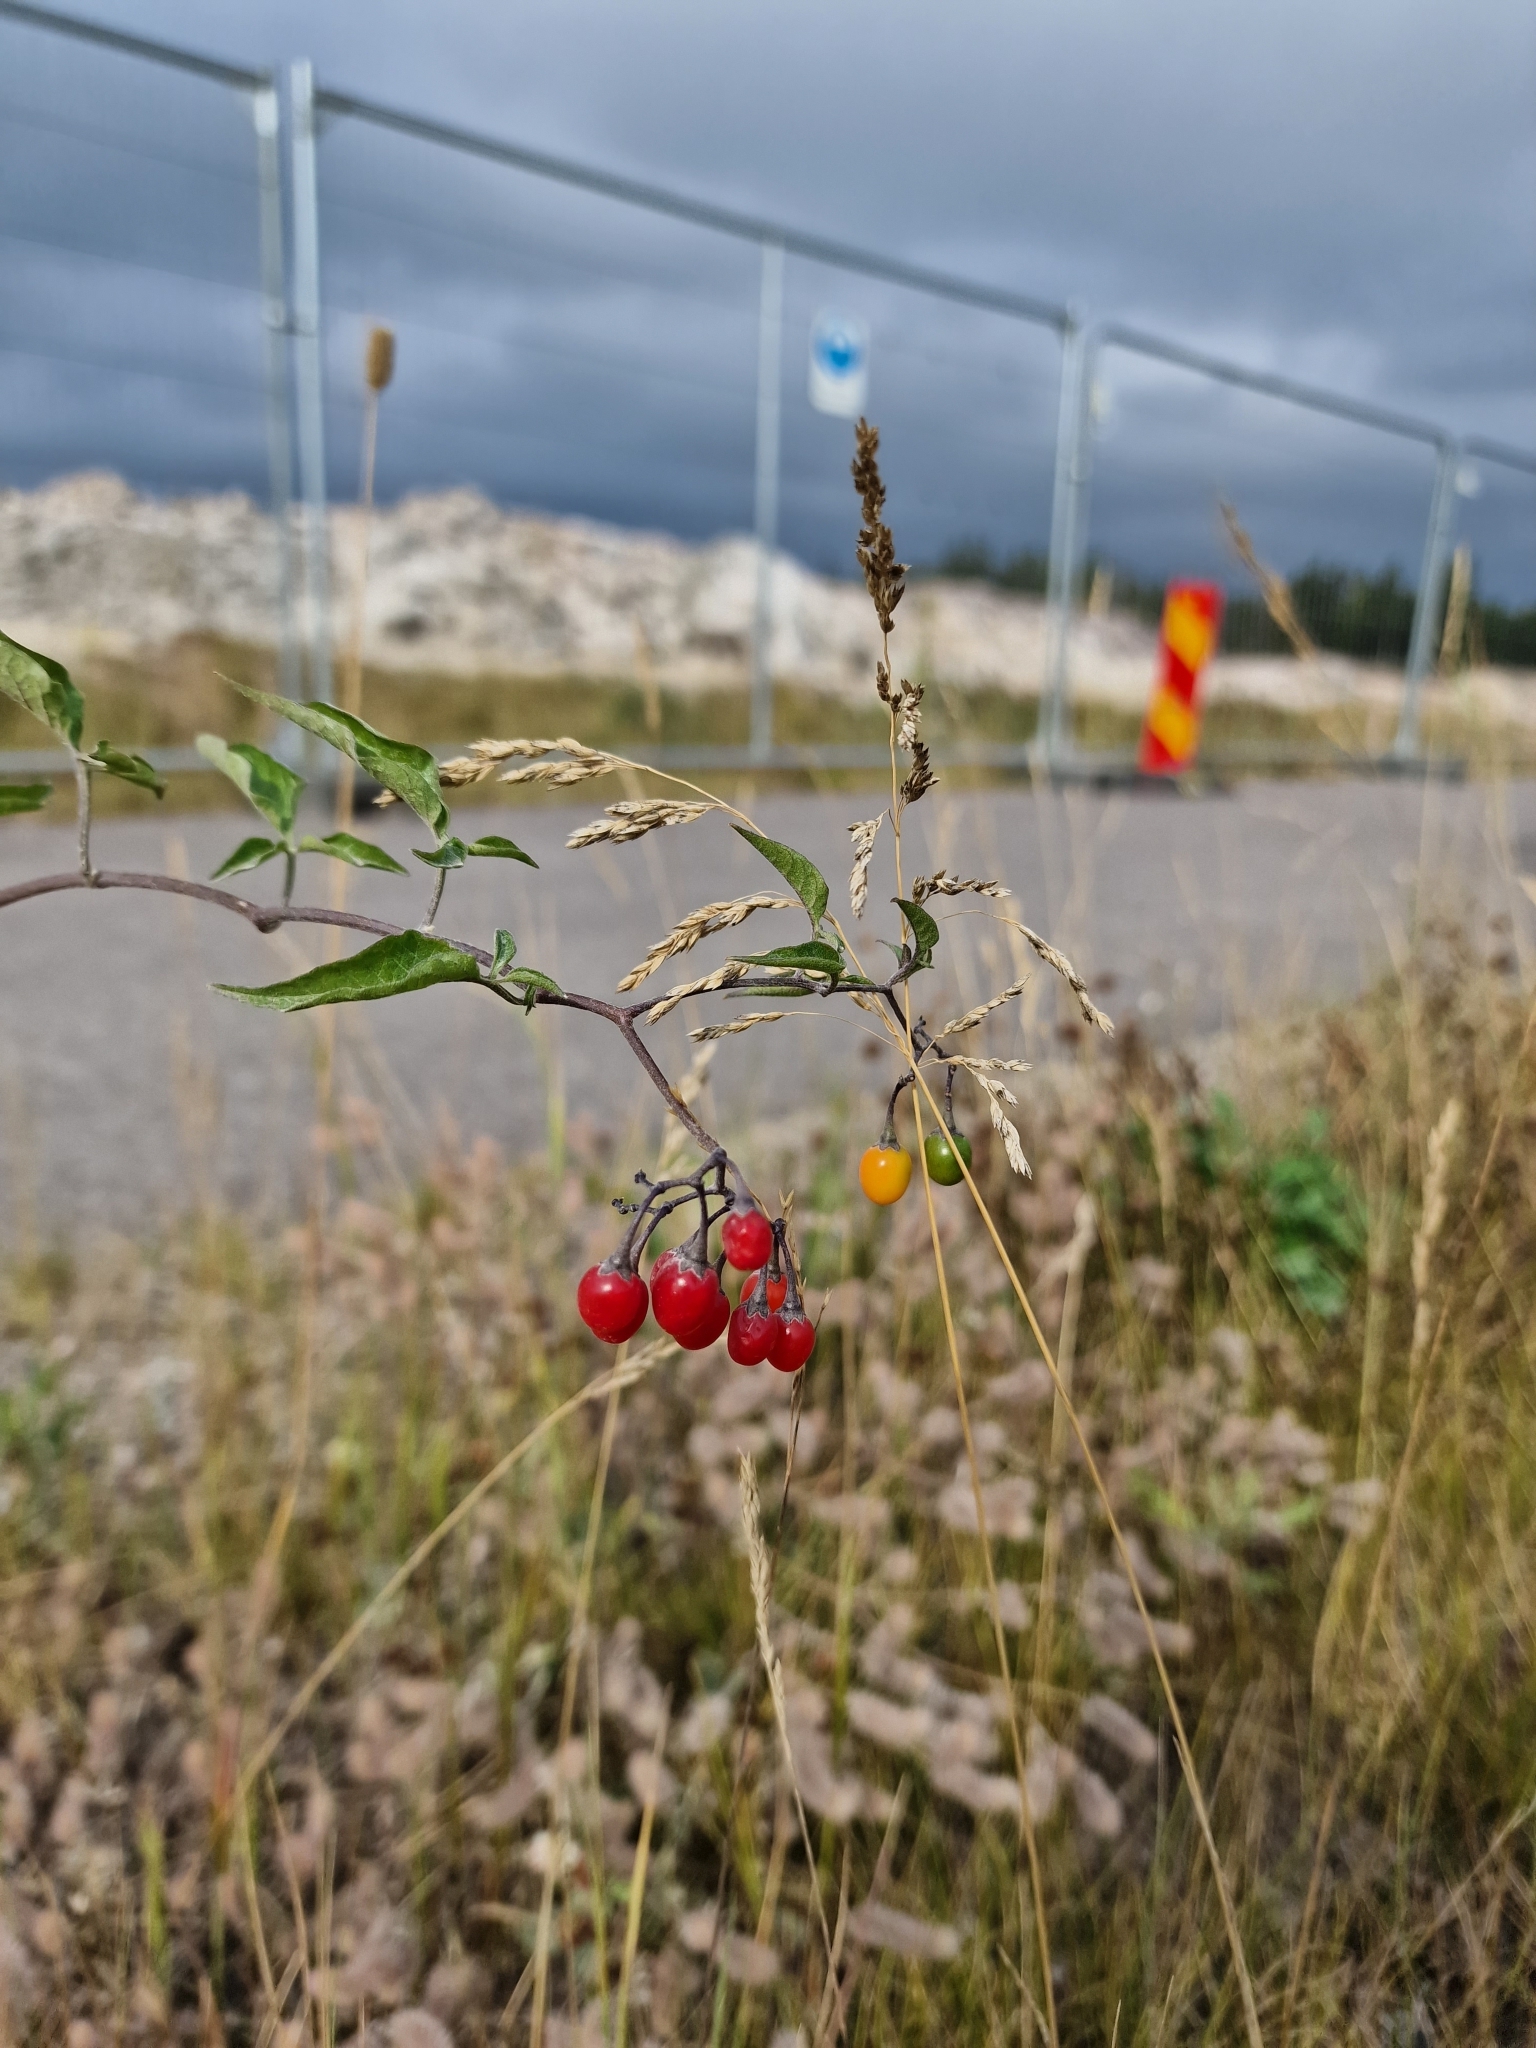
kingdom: Plantae
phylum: Tracheophyta
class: Magnoliopsida
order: Solanales
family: Solanaceae
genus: Solanum
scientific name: Solanum dulcamara
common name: Climbing nightshade
